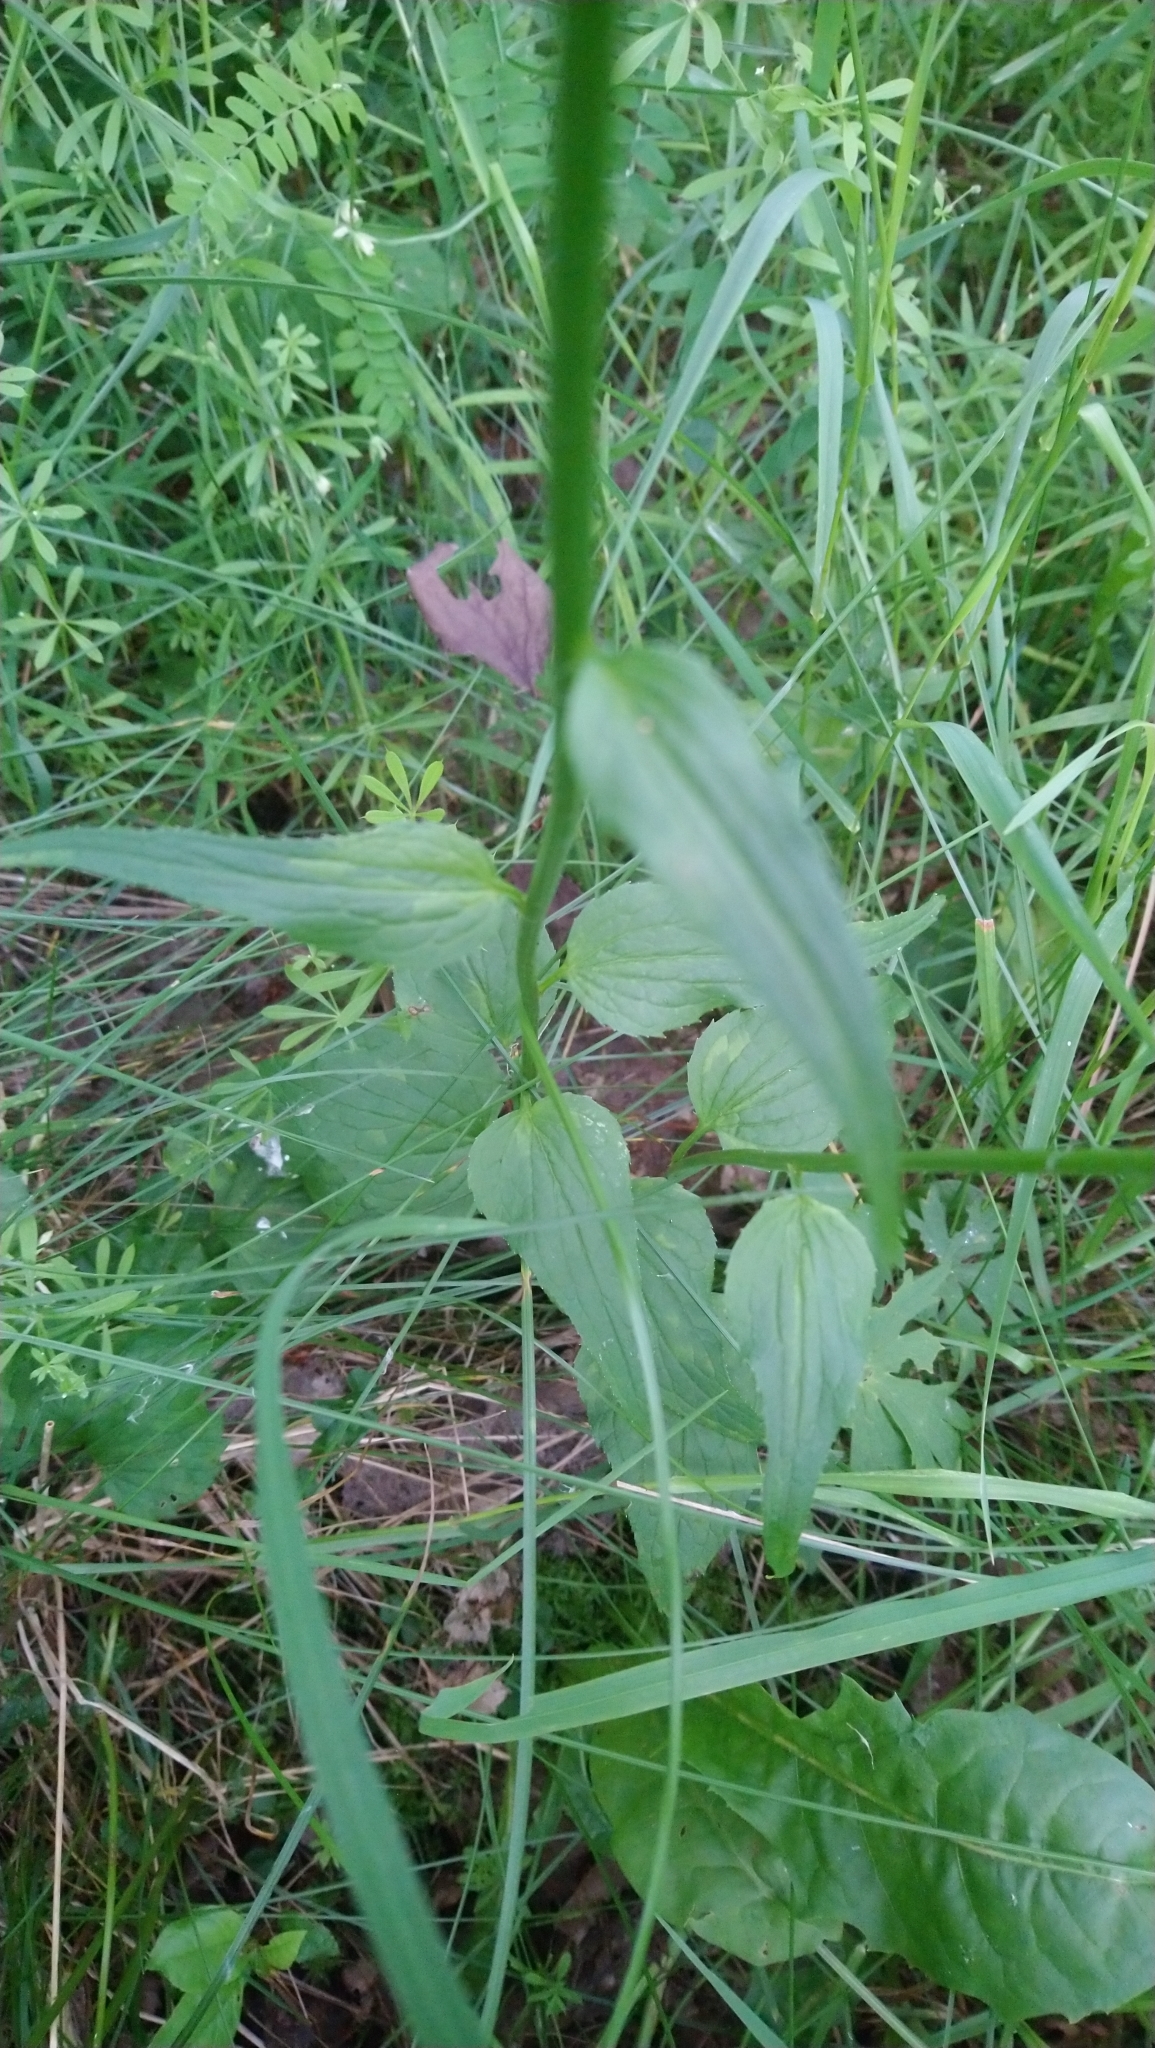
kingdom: Plantae
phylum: Tracheophyta
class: Magnoliopsida
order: Asterales
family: Campanulaceae
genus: Phyteuma
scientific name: Phyteuma spicatum
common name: Spiked rampion
